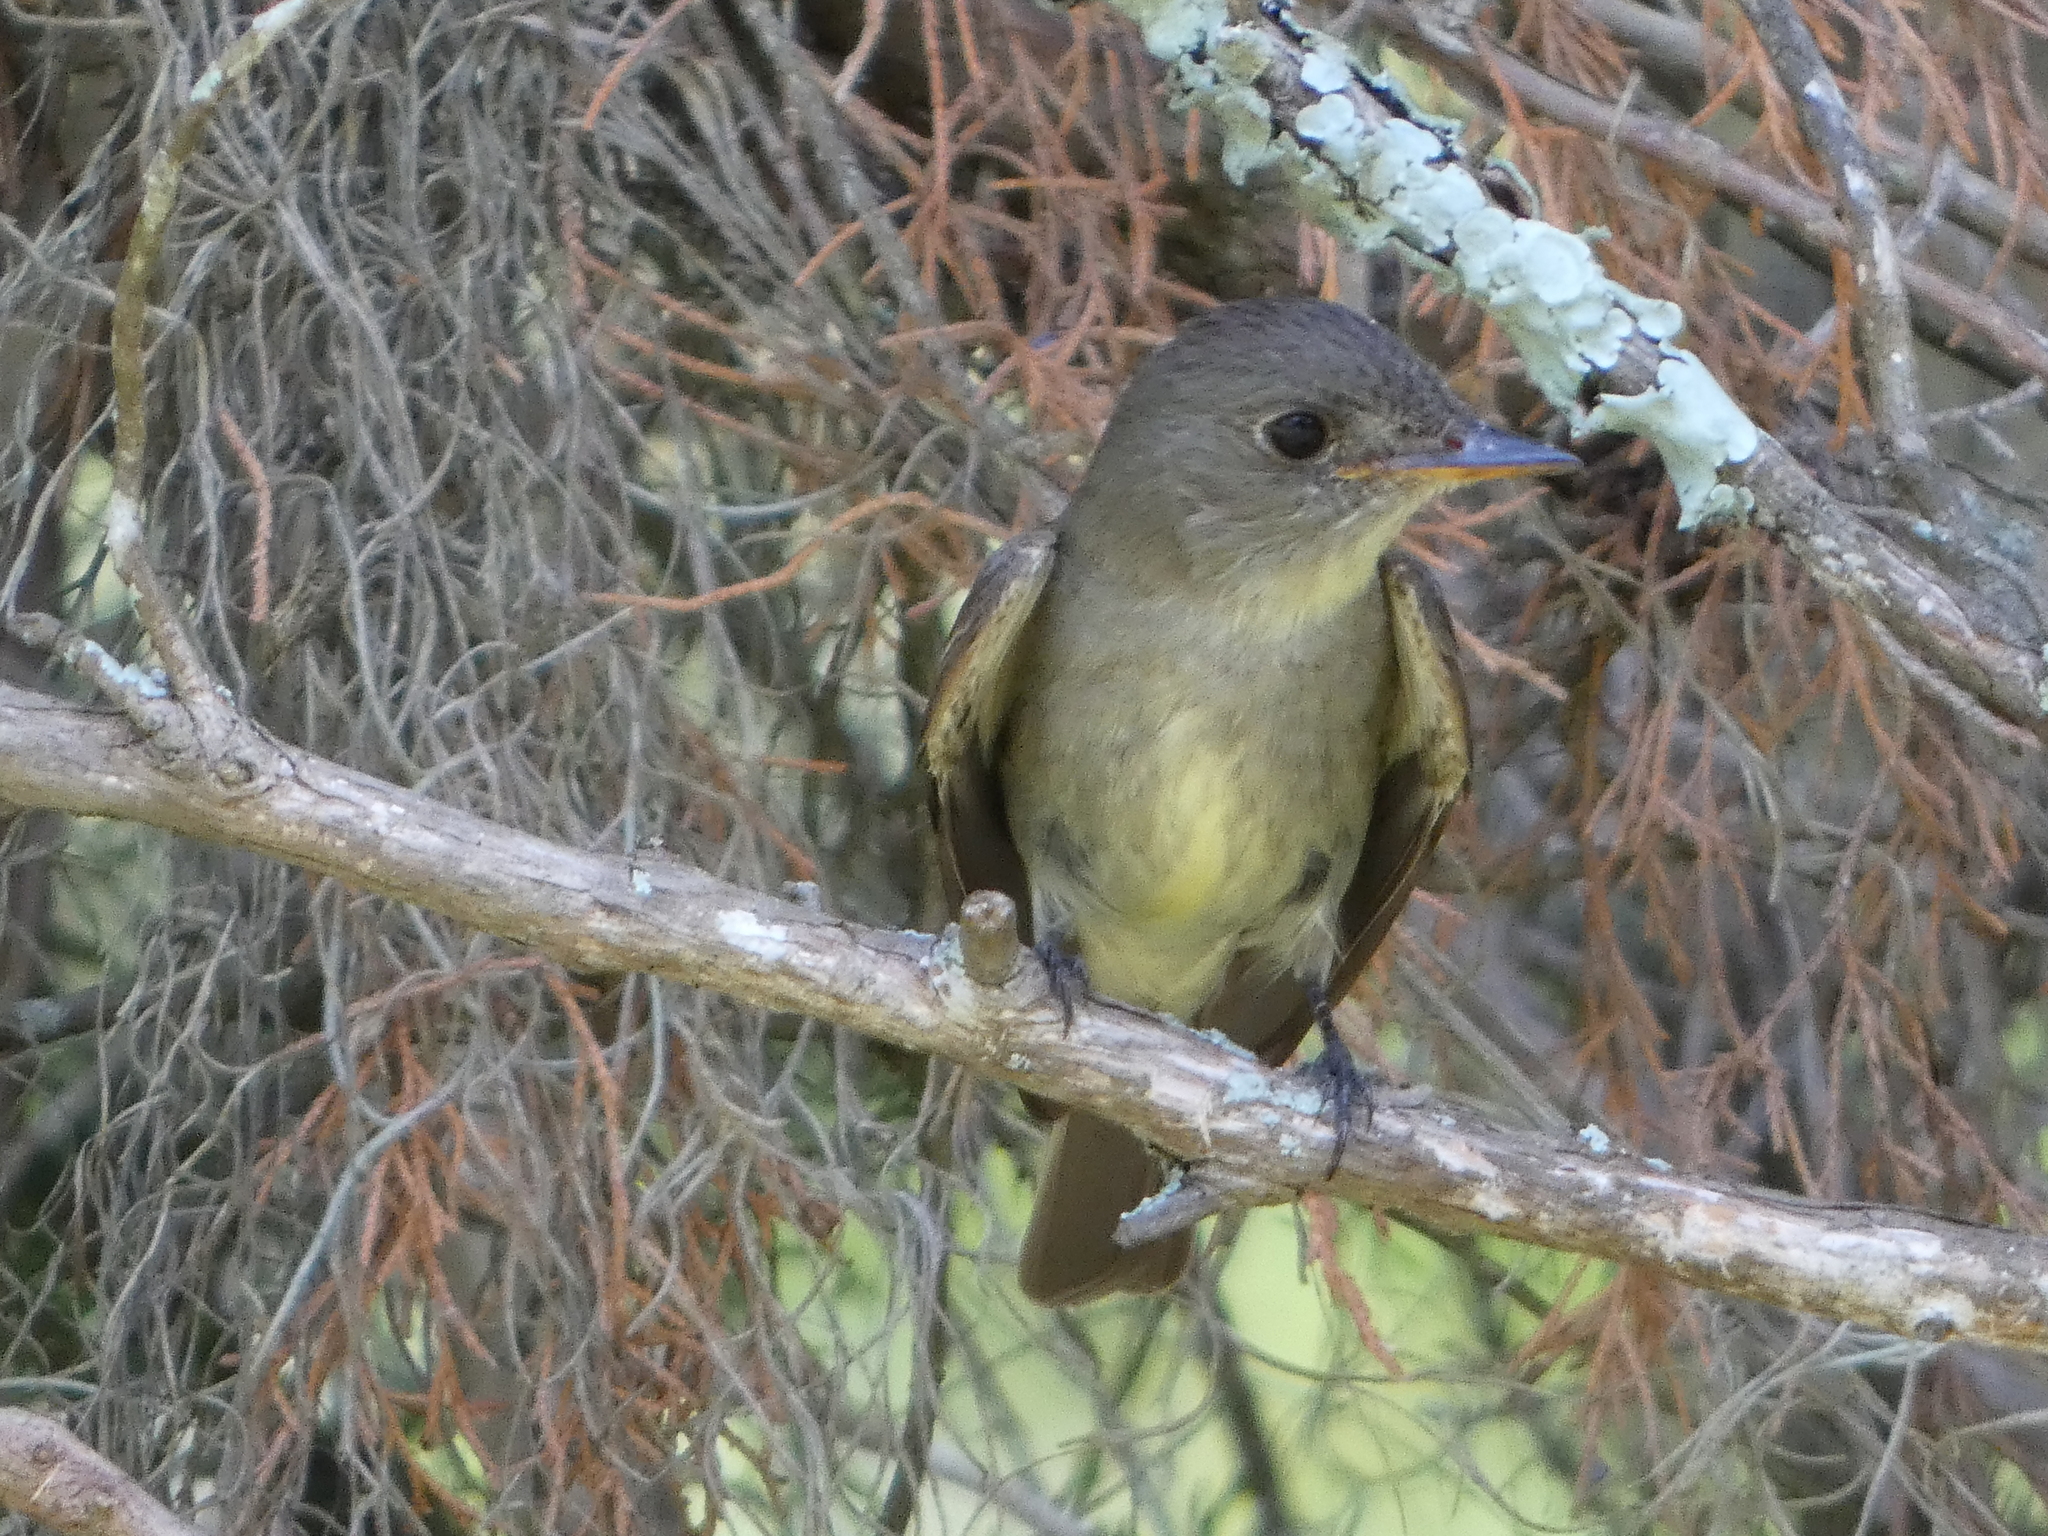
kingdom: Animalia
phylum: Chordata
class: Aves
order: Passeriformes
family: Tyrannidae
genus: Contopus
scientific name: Contopus virens
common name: Eastern wood-pewee
